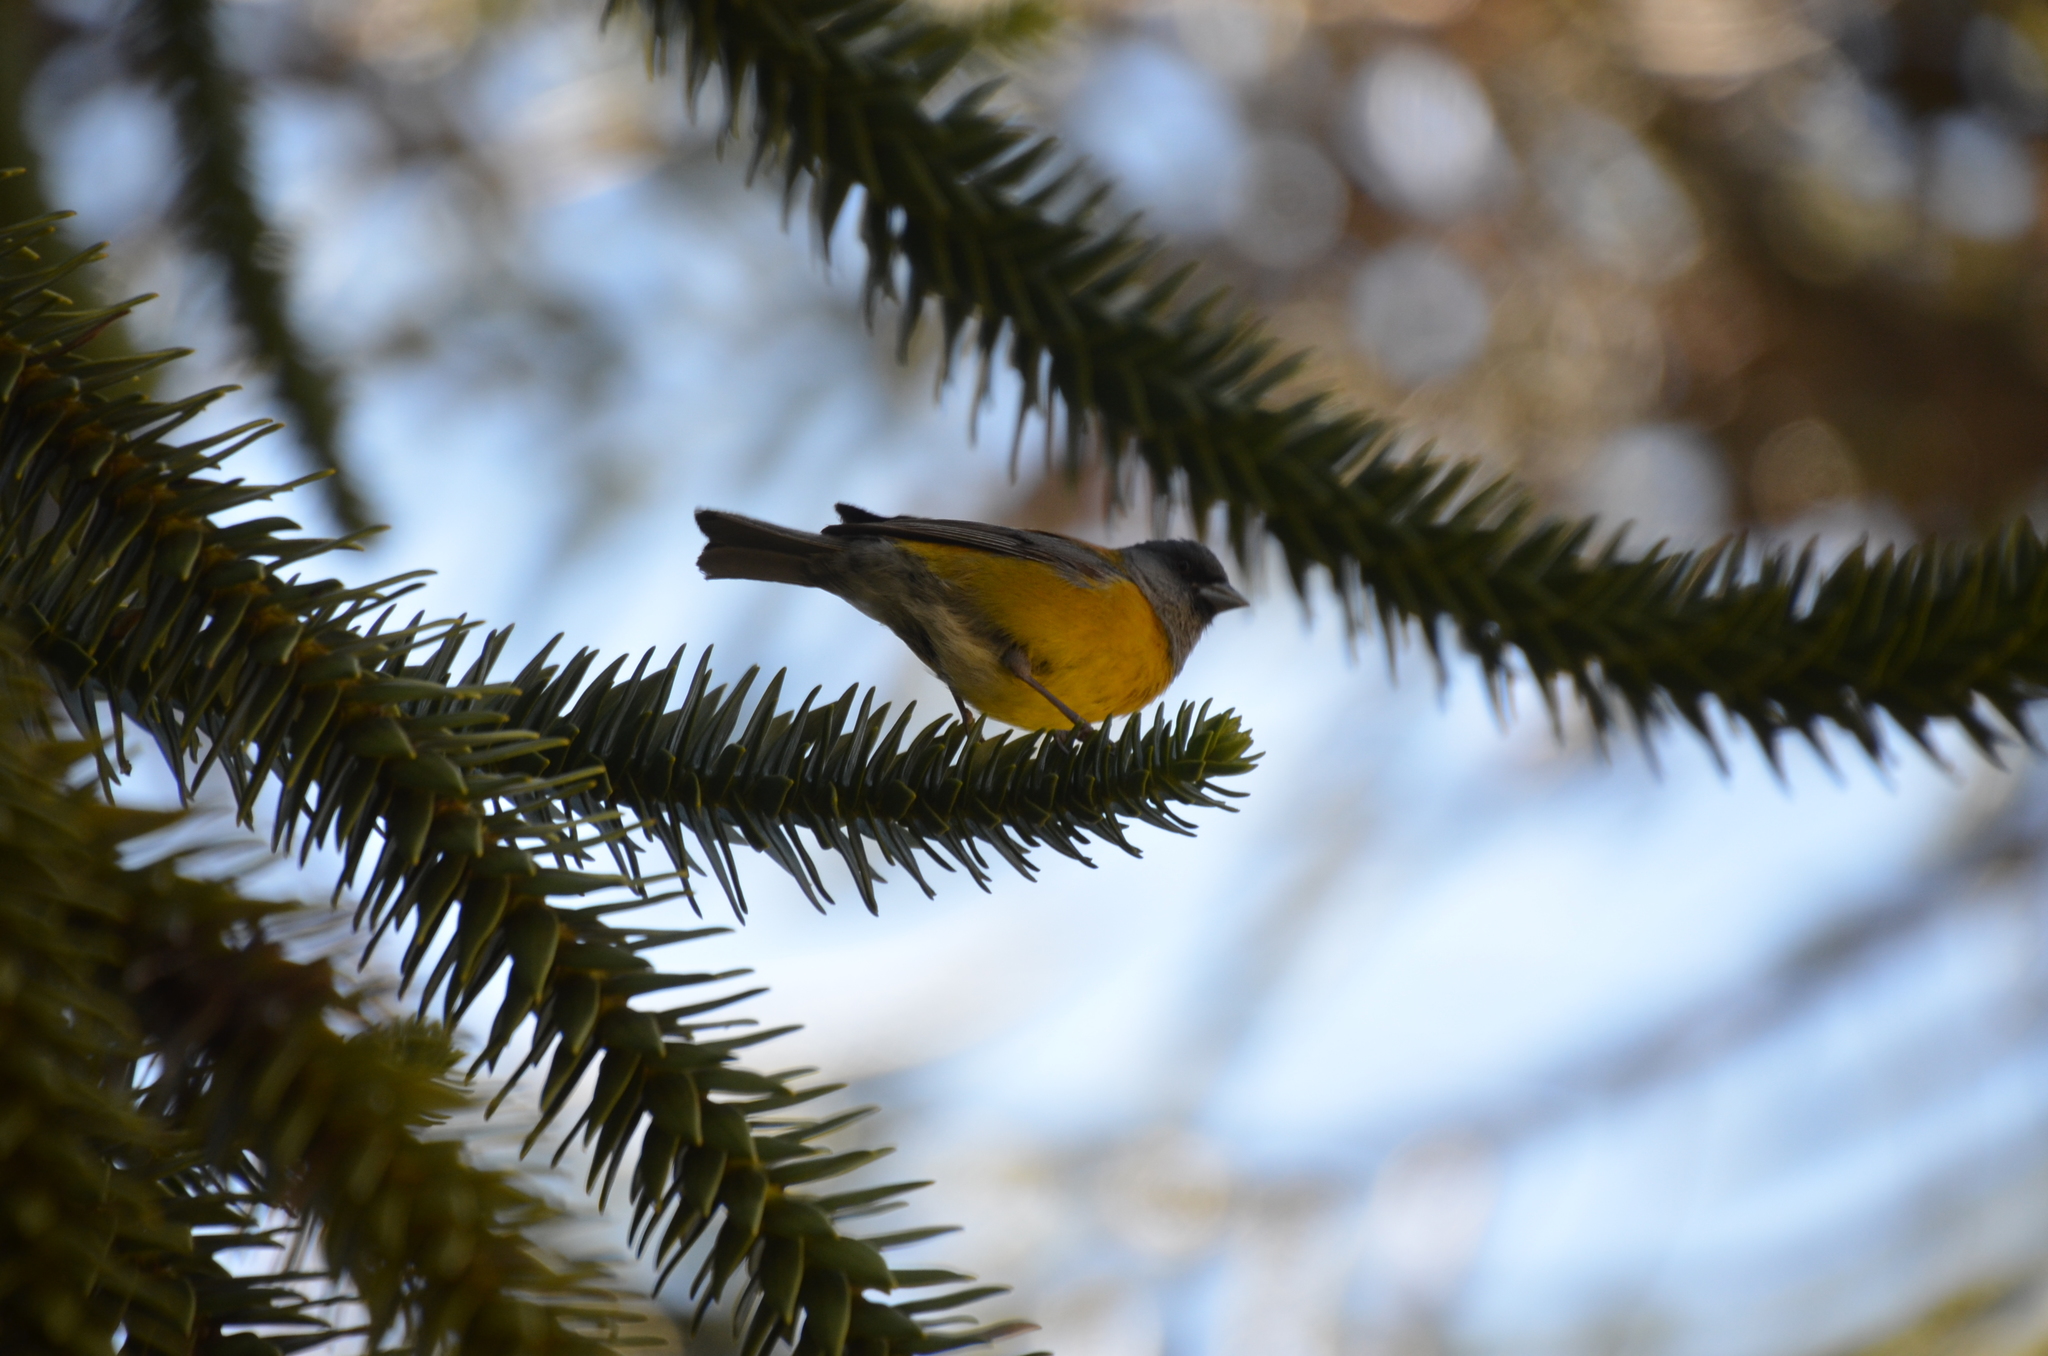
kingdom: Animalia
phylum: Chordata
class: Aves
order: Passeriformes
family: Thraupidae
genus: Phrygilus
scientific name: Phrygilus patagonicus
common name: Patagonian sierra finch
